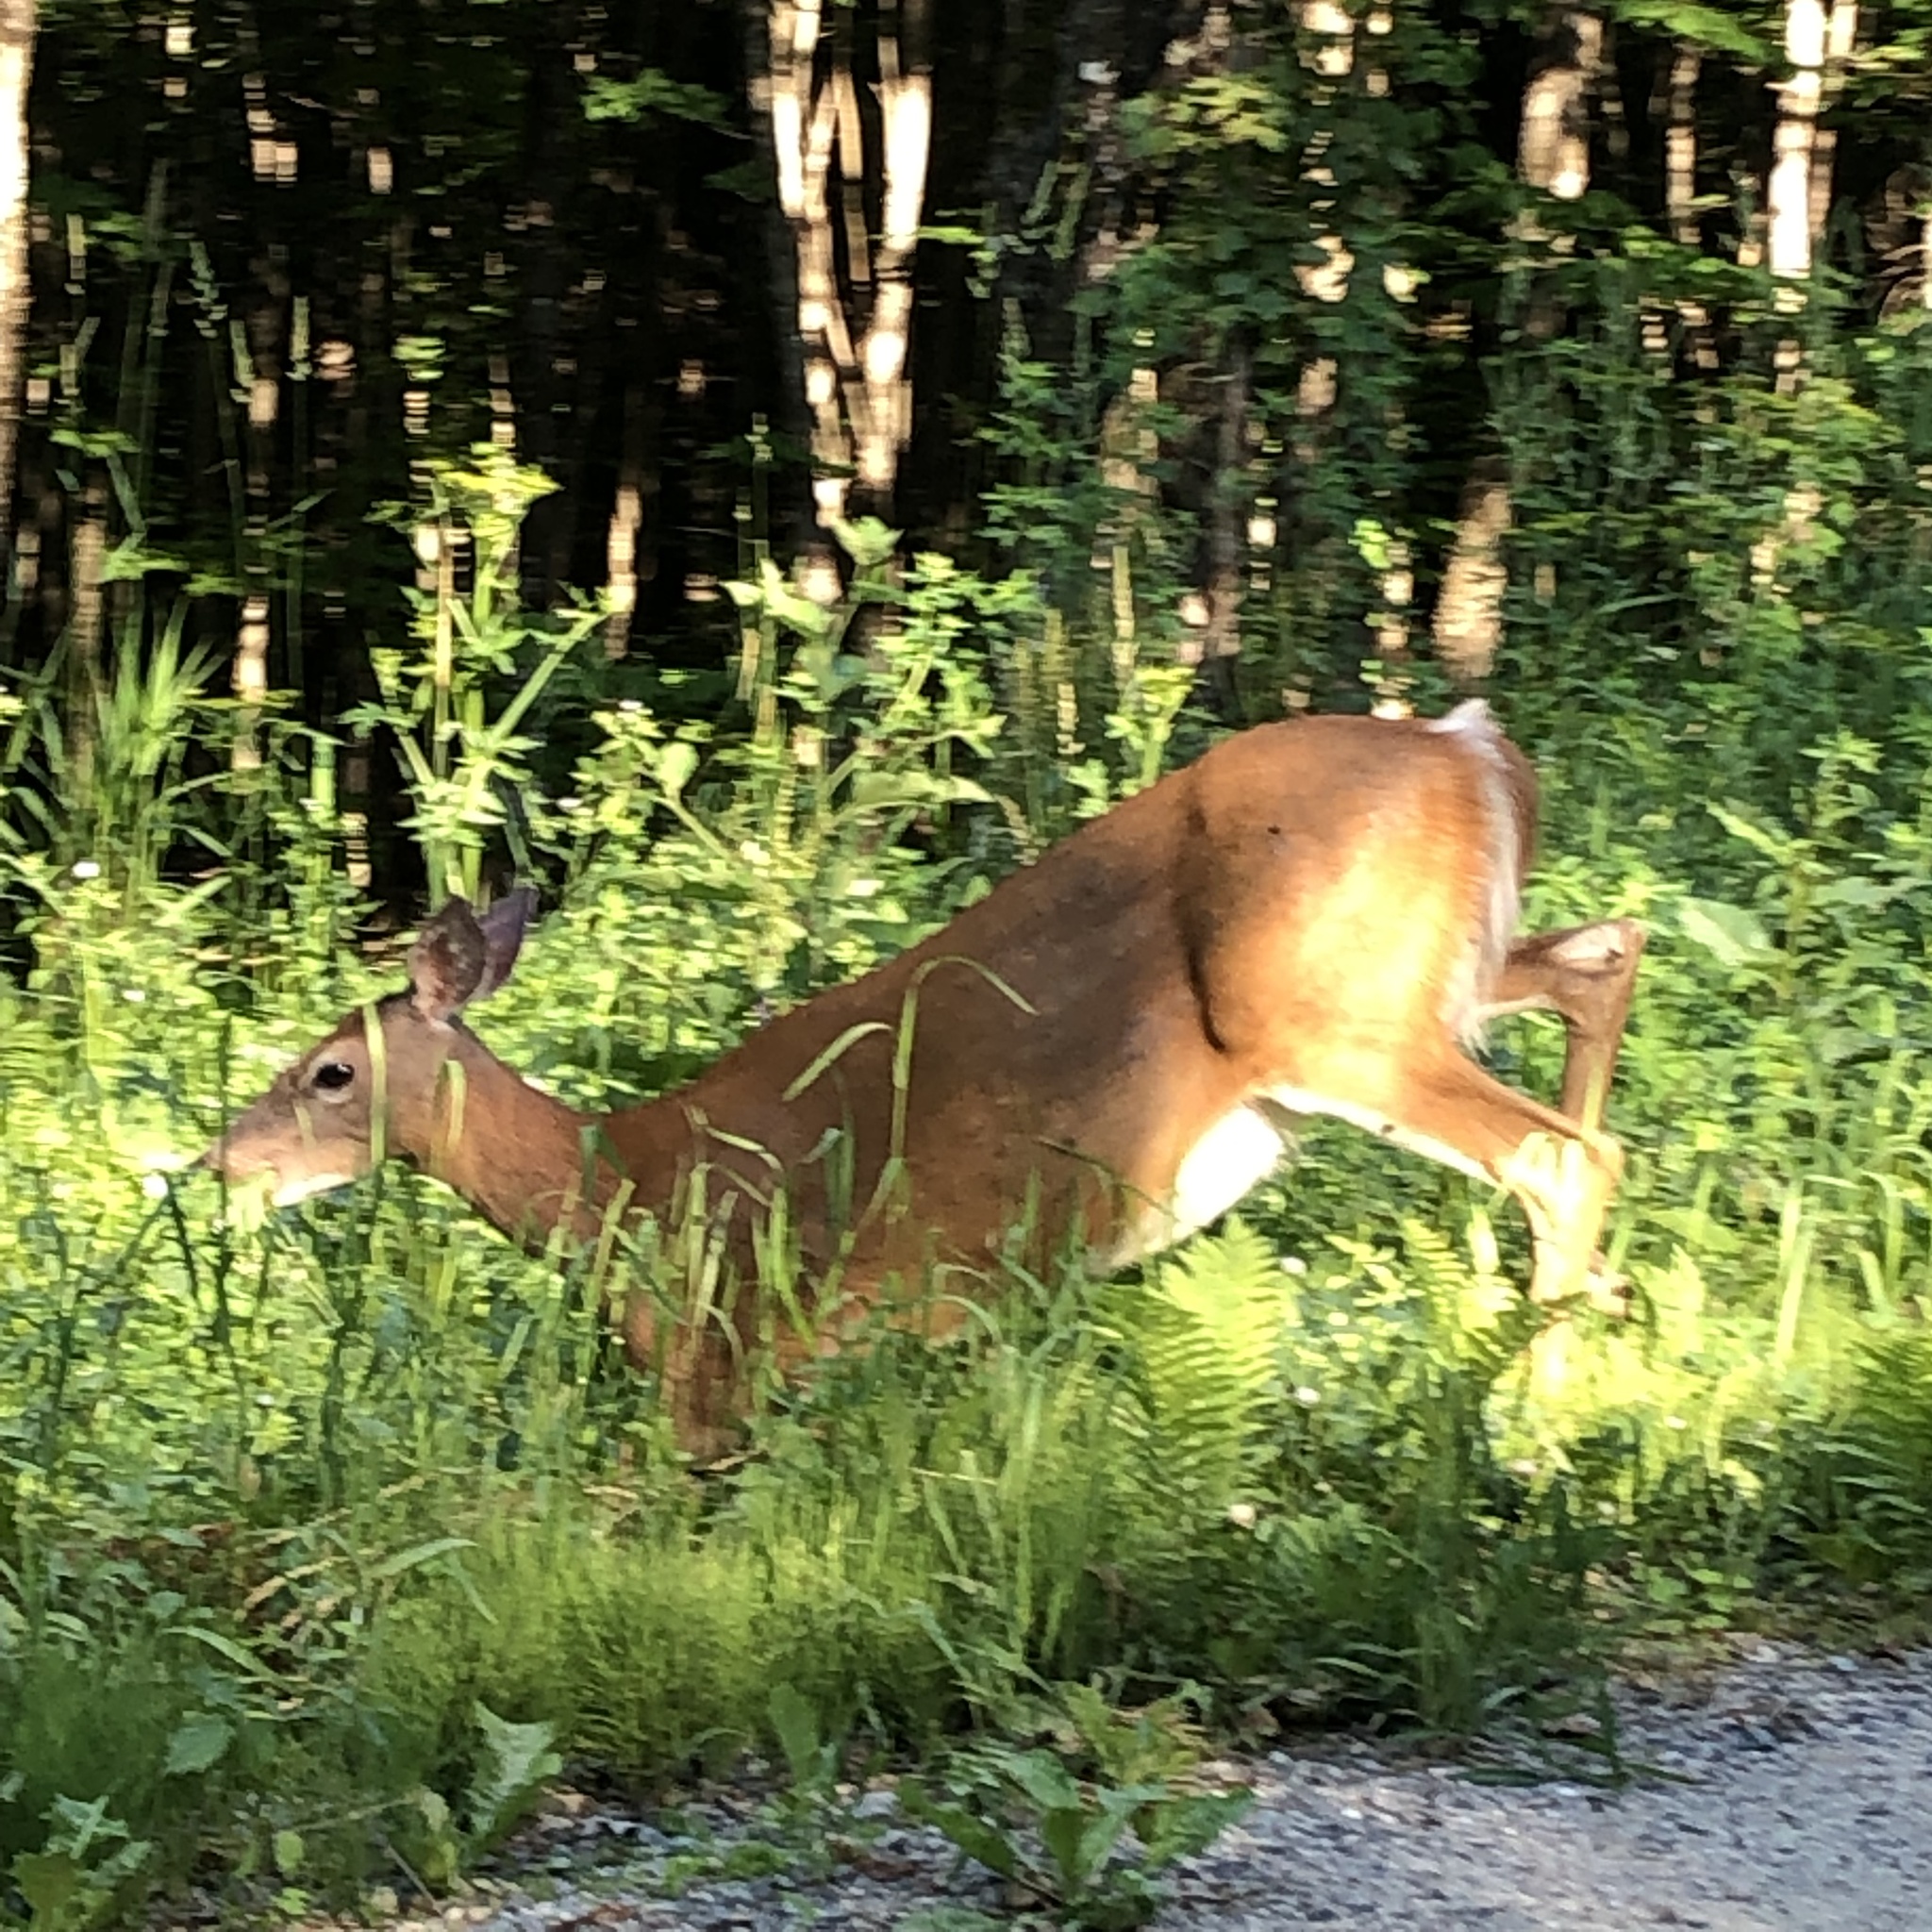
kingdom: Animalia
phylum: Chordata
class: Mammalia
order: Artiodactyla
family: Cervidae
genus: Odocoileus
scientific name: Odocoileus virginianus
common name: White-tailed deer
